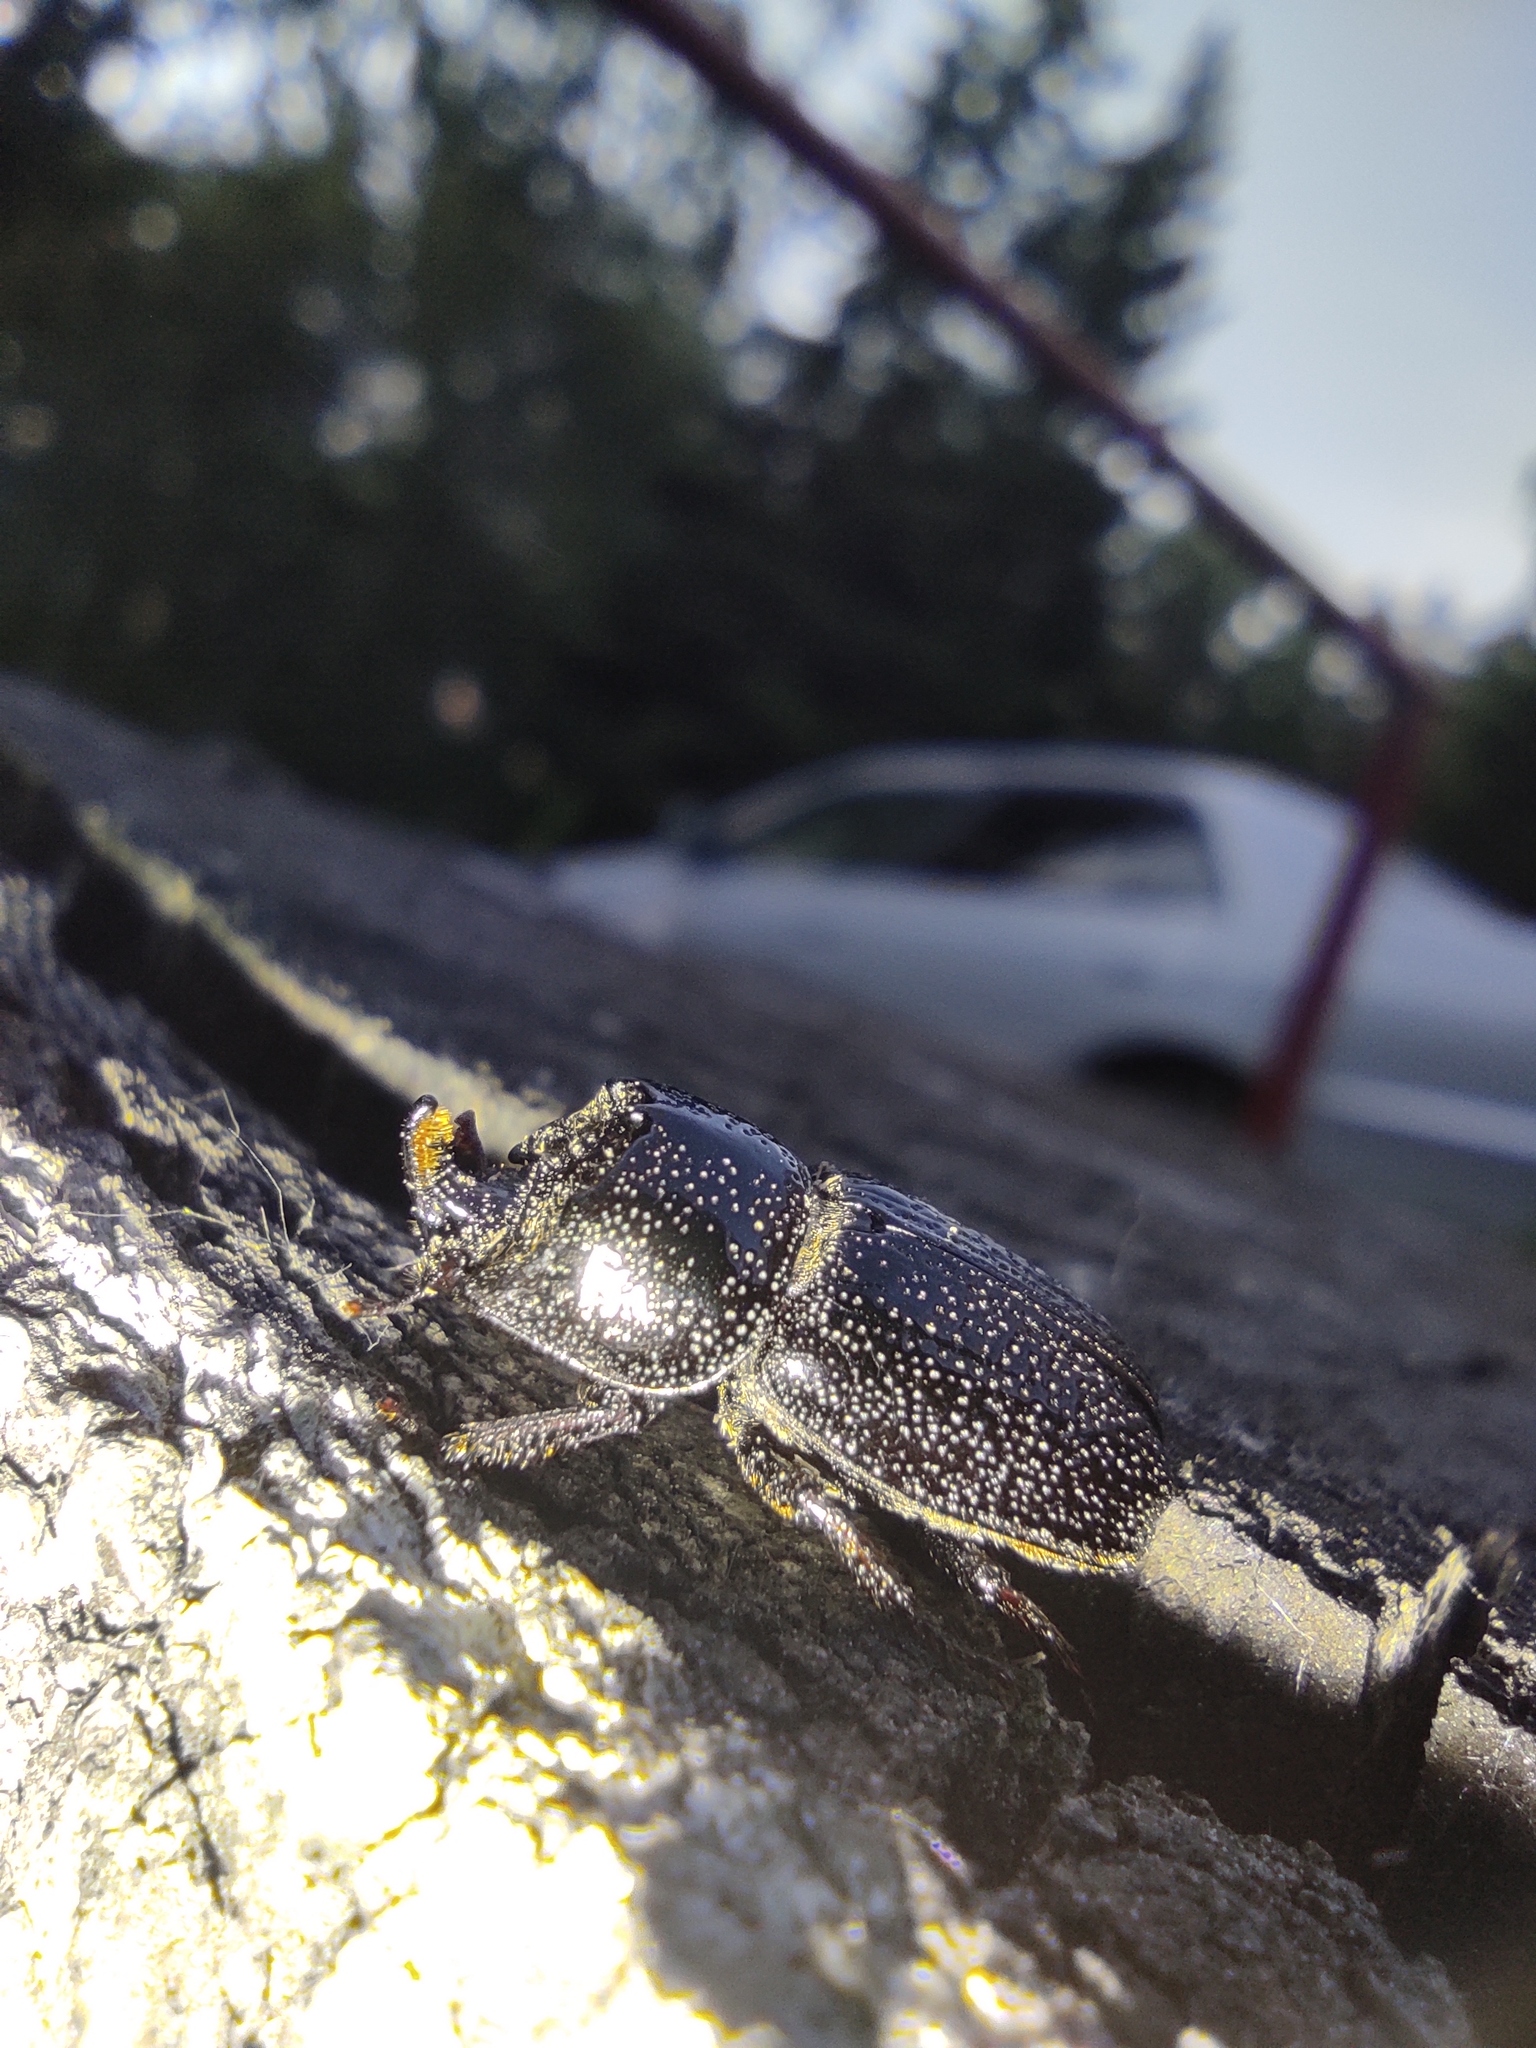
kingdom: Animalia
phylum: Arthropoda
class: Insecta
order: Coleoptera
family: Lucanidae
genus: Sinodendron
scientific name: Sinodendron cylindricum
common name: Rhinoceros beetle
